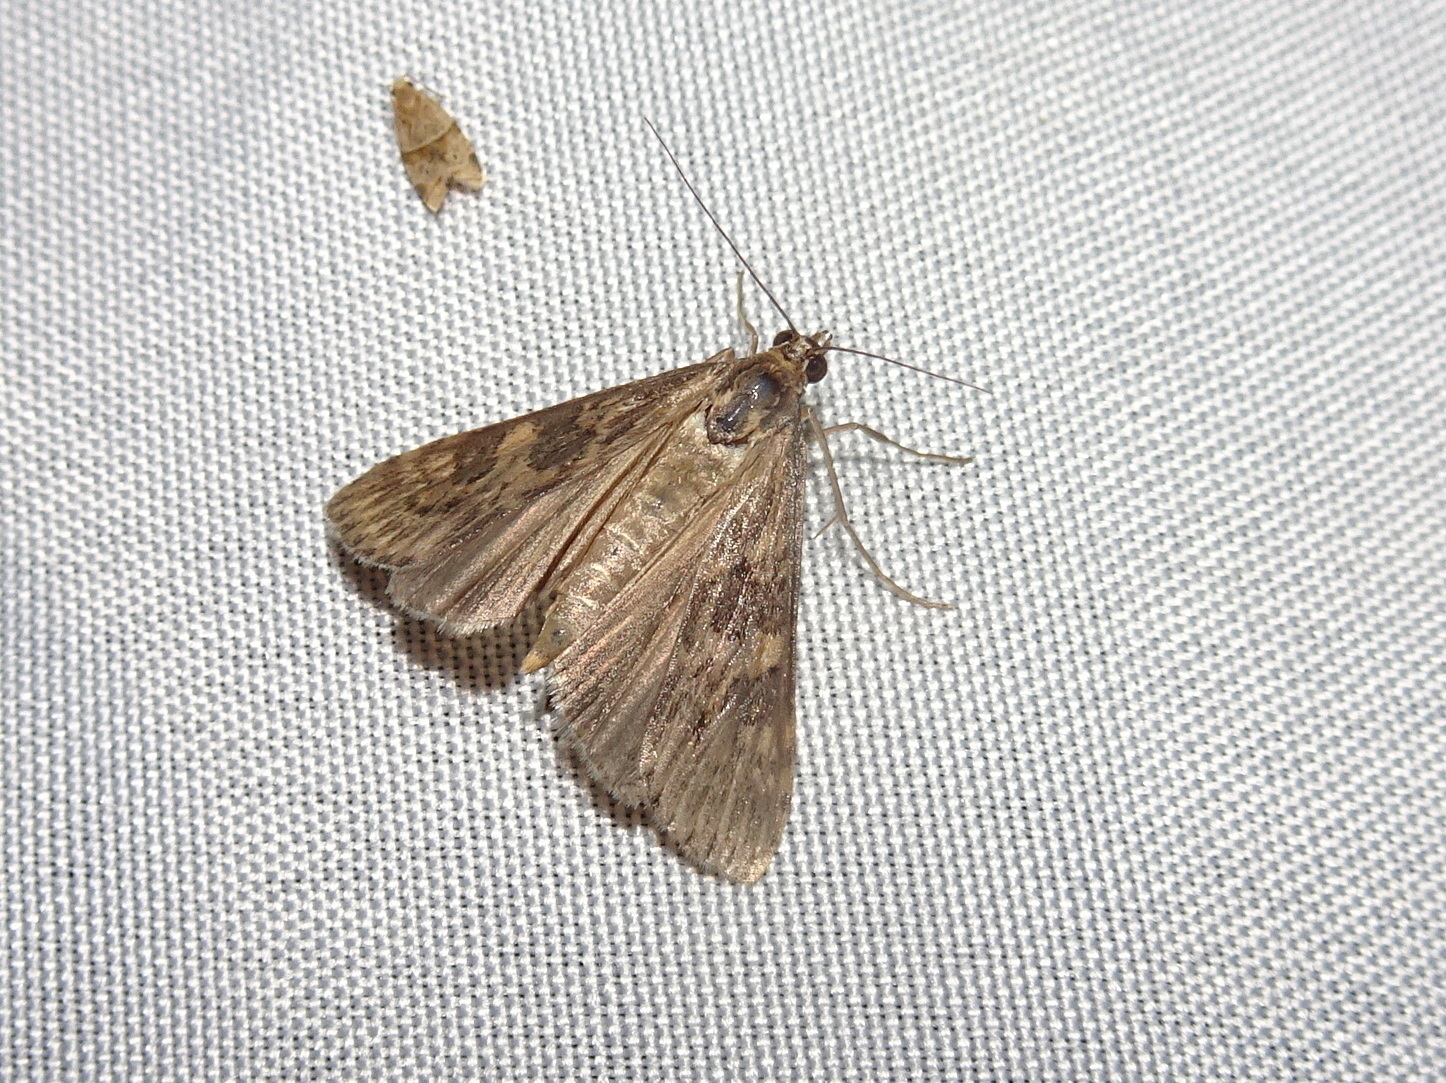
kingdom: Animalia
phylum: Arthropoda
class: Insecta
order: Lepidoptera
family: Crambidae
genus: Nomophila
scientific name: Nomophila nearctica
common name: American rush veneer
